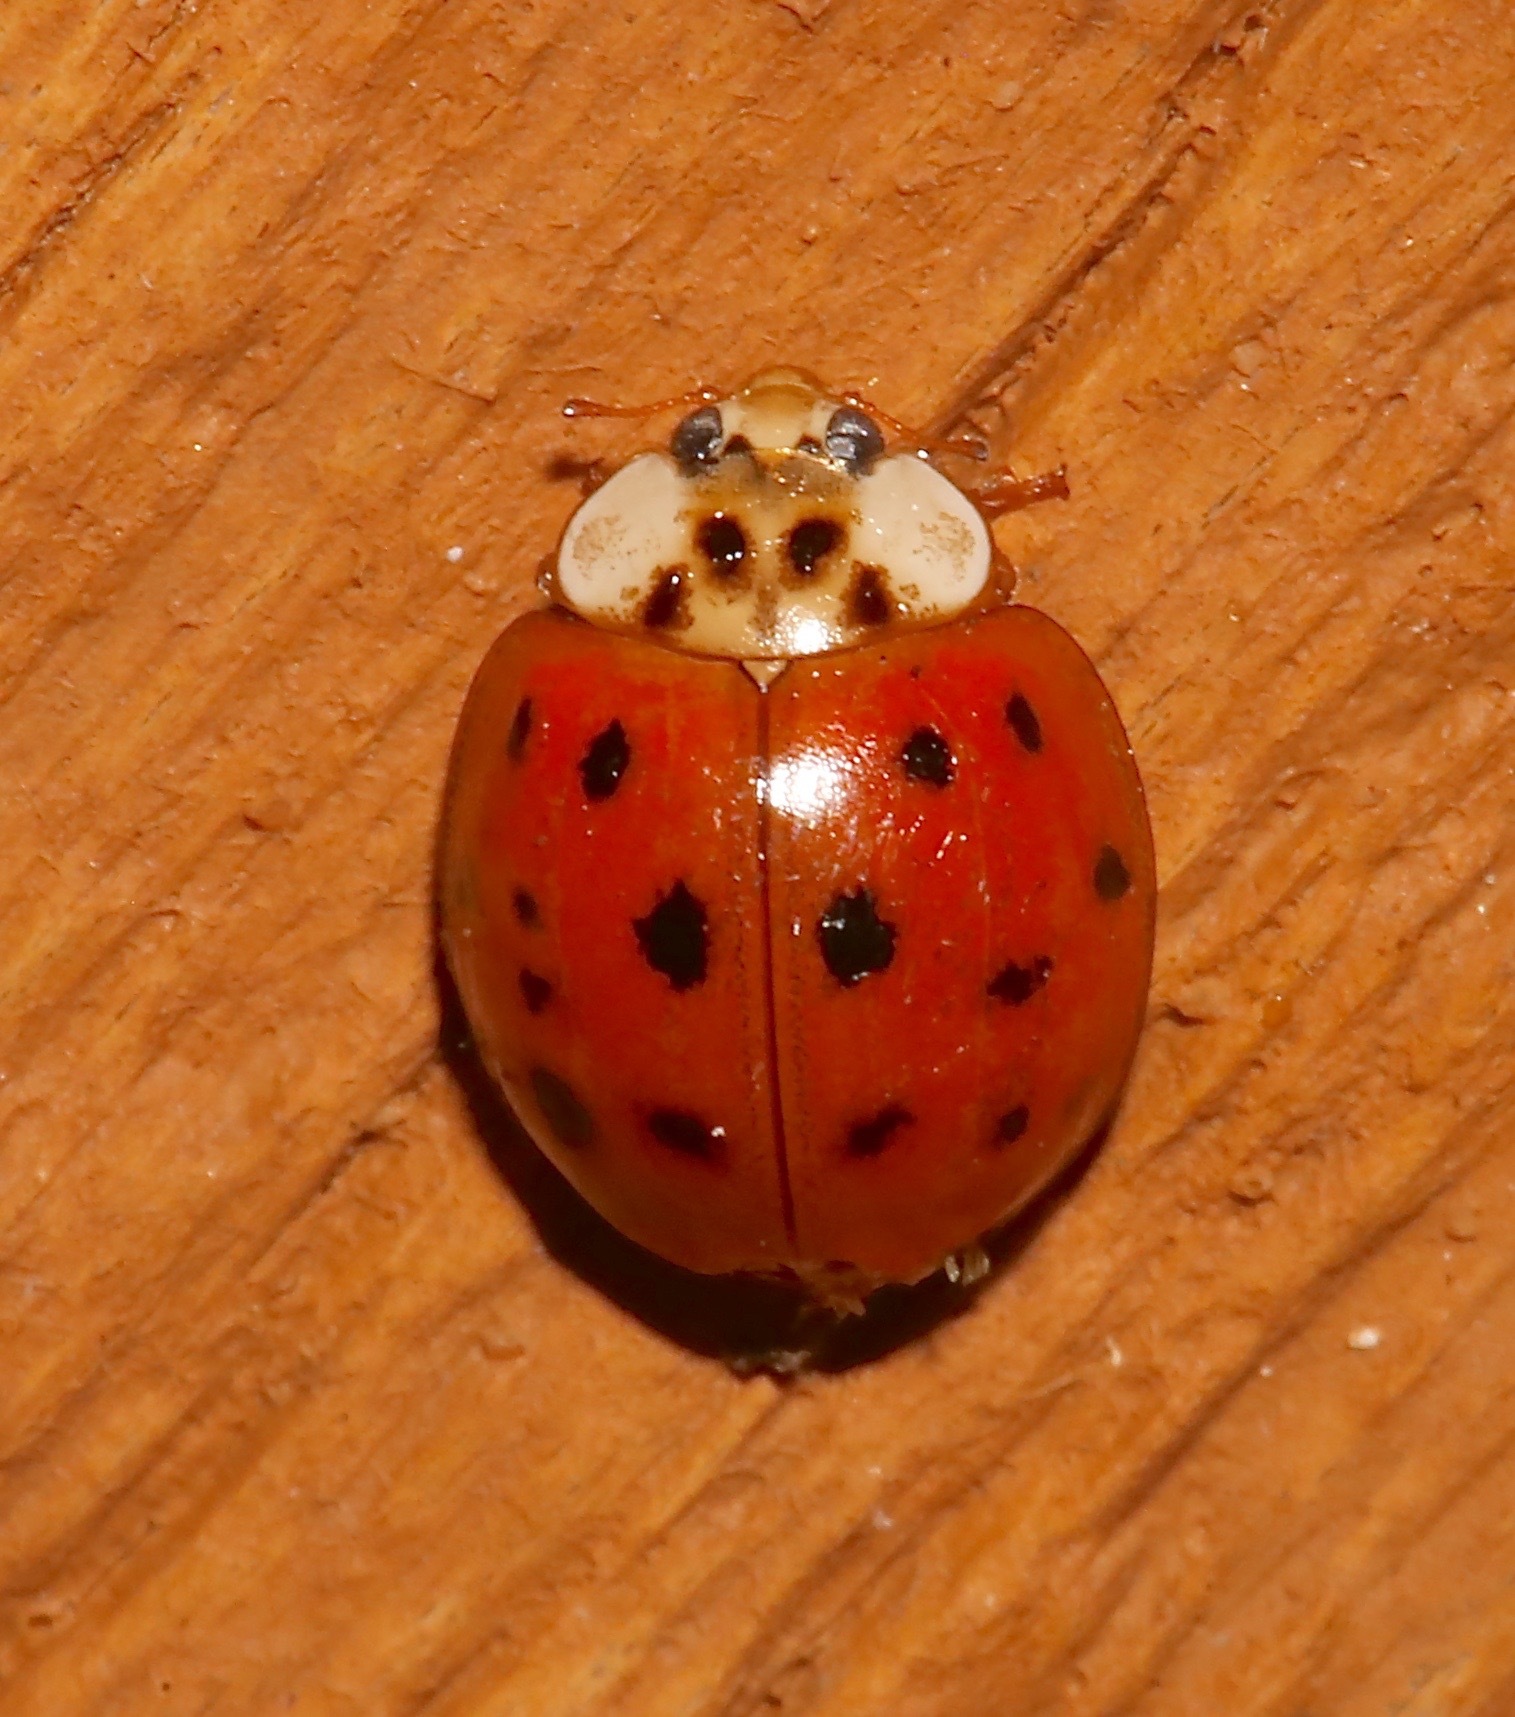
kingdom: Animalia
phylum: Arthropoda
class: Insecta
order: Coleoptera
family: Coccinellidae
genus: Harmonia
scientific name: Harmonia axyridis
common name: Harlequin ladybird
